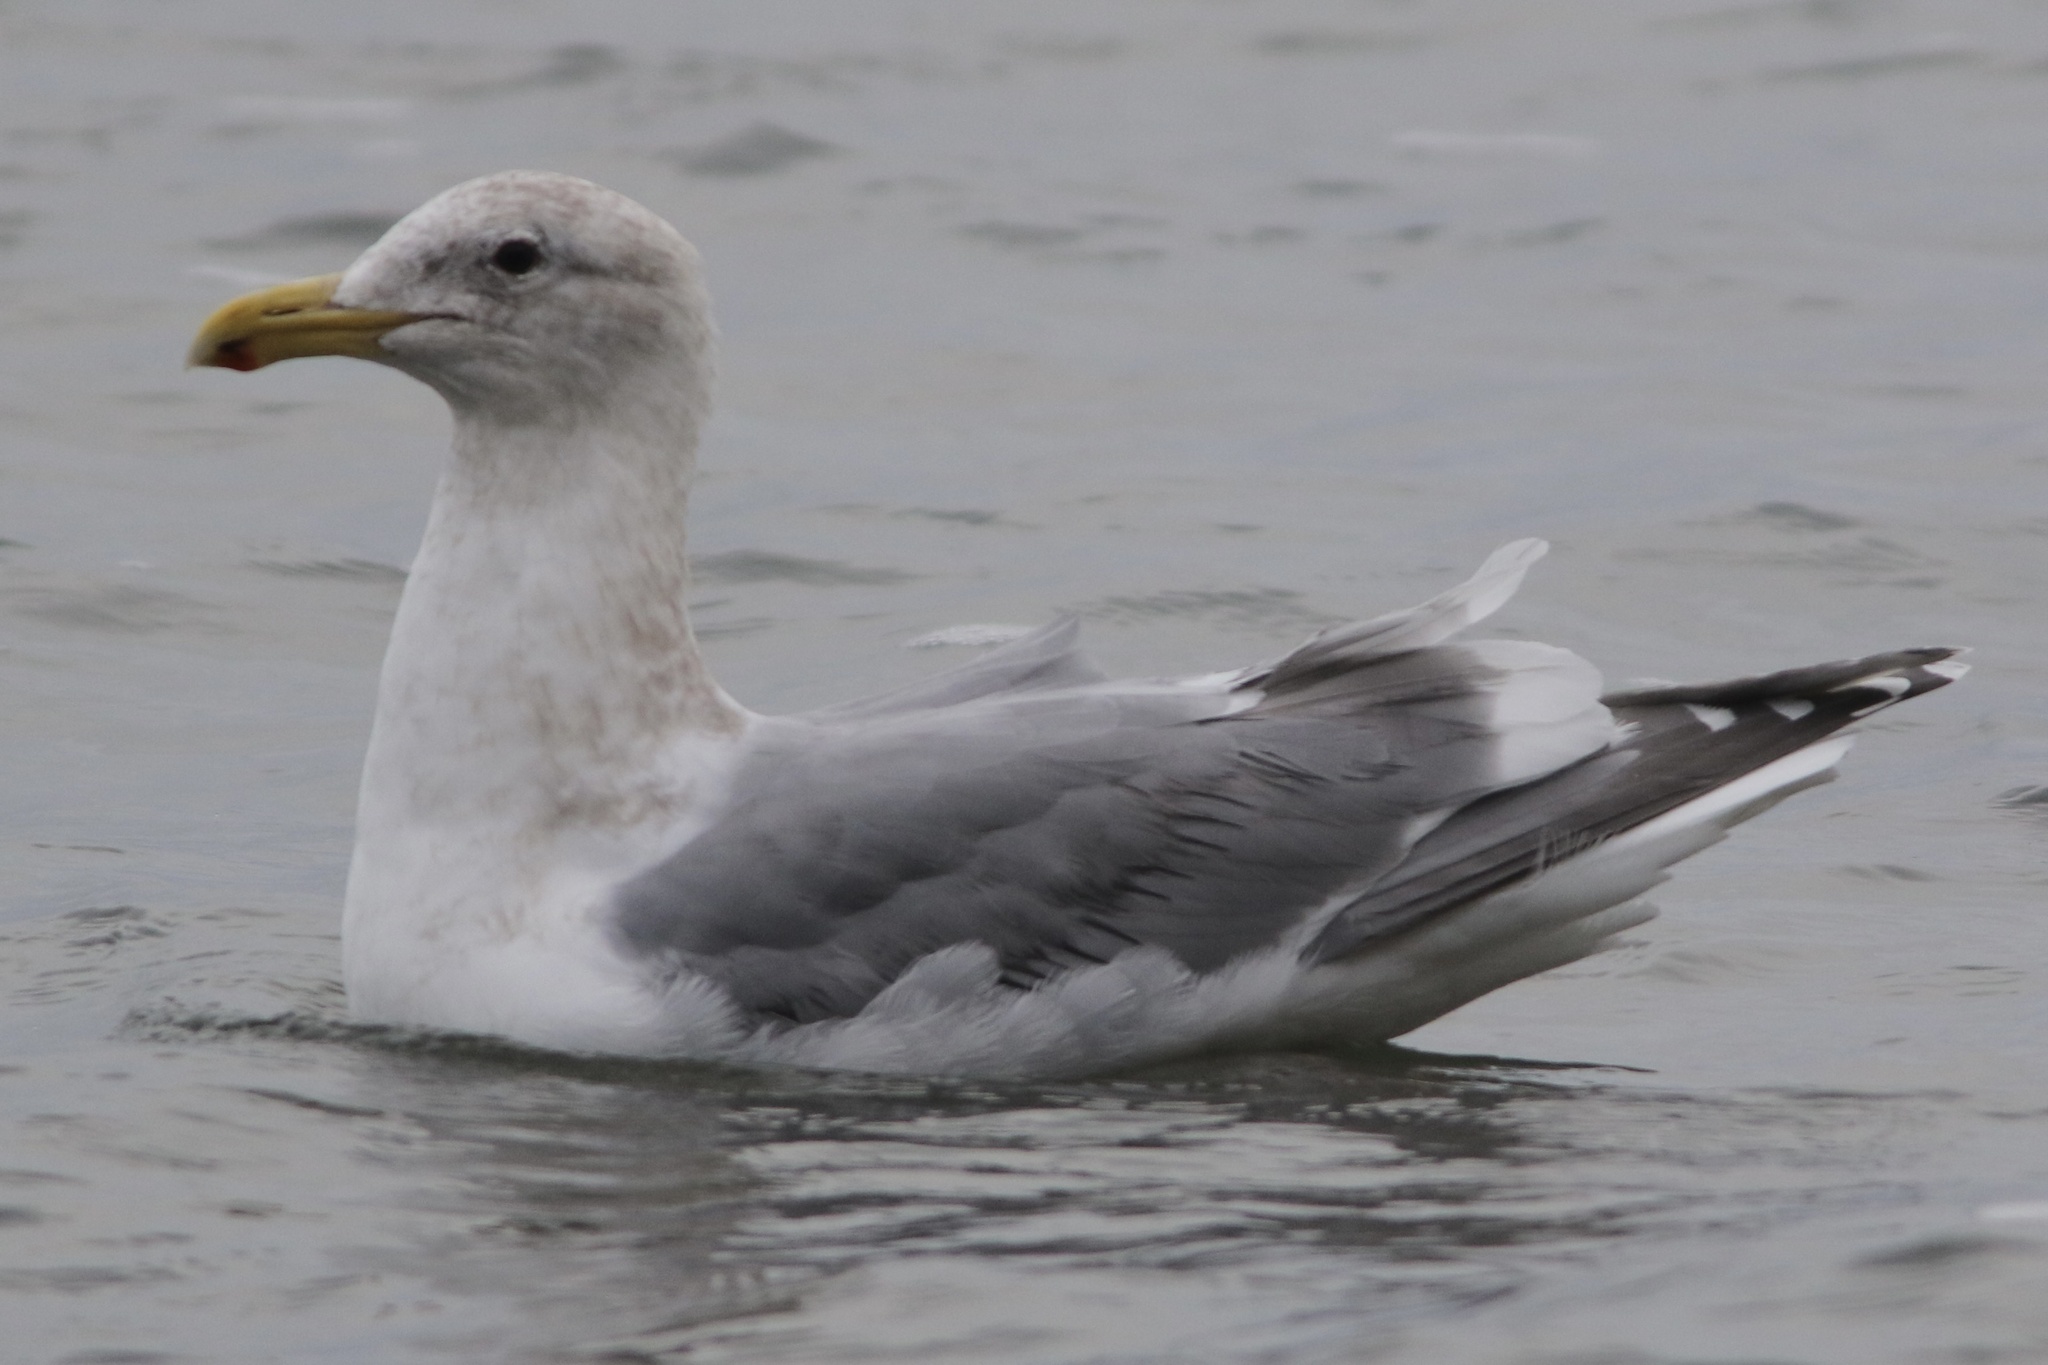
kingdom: Animalia
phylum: Chordata
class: Aves
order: Charadriiformes
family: Laridae
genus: Larus
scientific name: Larus
